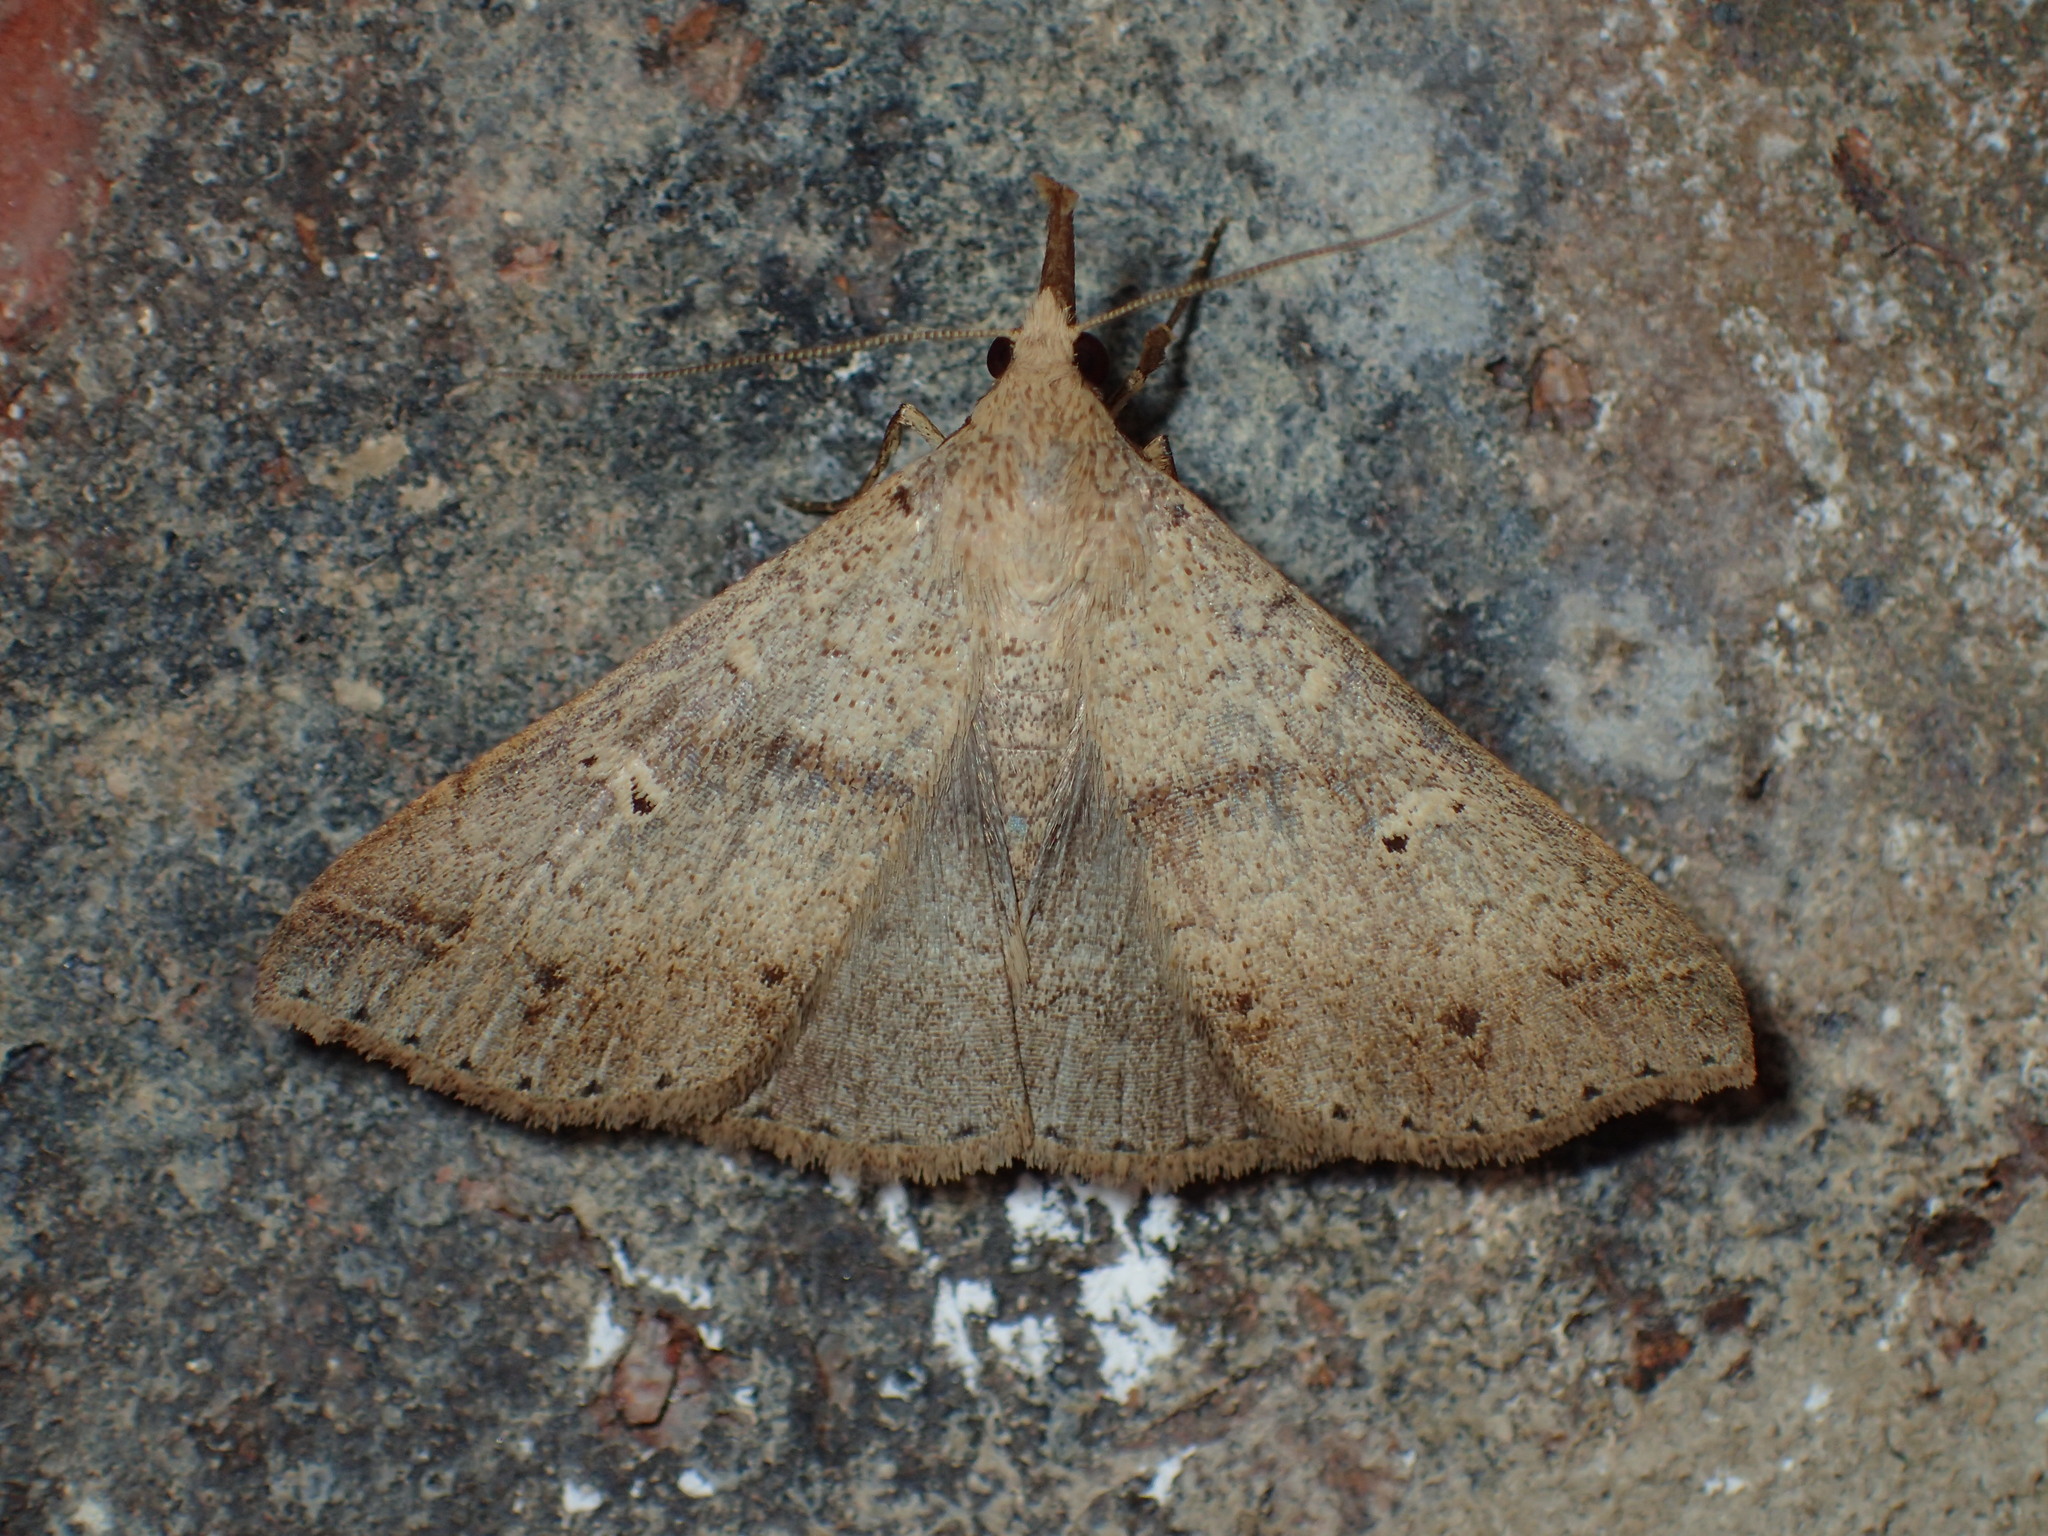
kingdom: Animalia
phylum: Arthropoda
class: Insecta
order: Lepidoptera
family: Erebidae
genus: Renia
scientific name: Renia flavipunctalis
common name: Yellow-spotted renia moth
